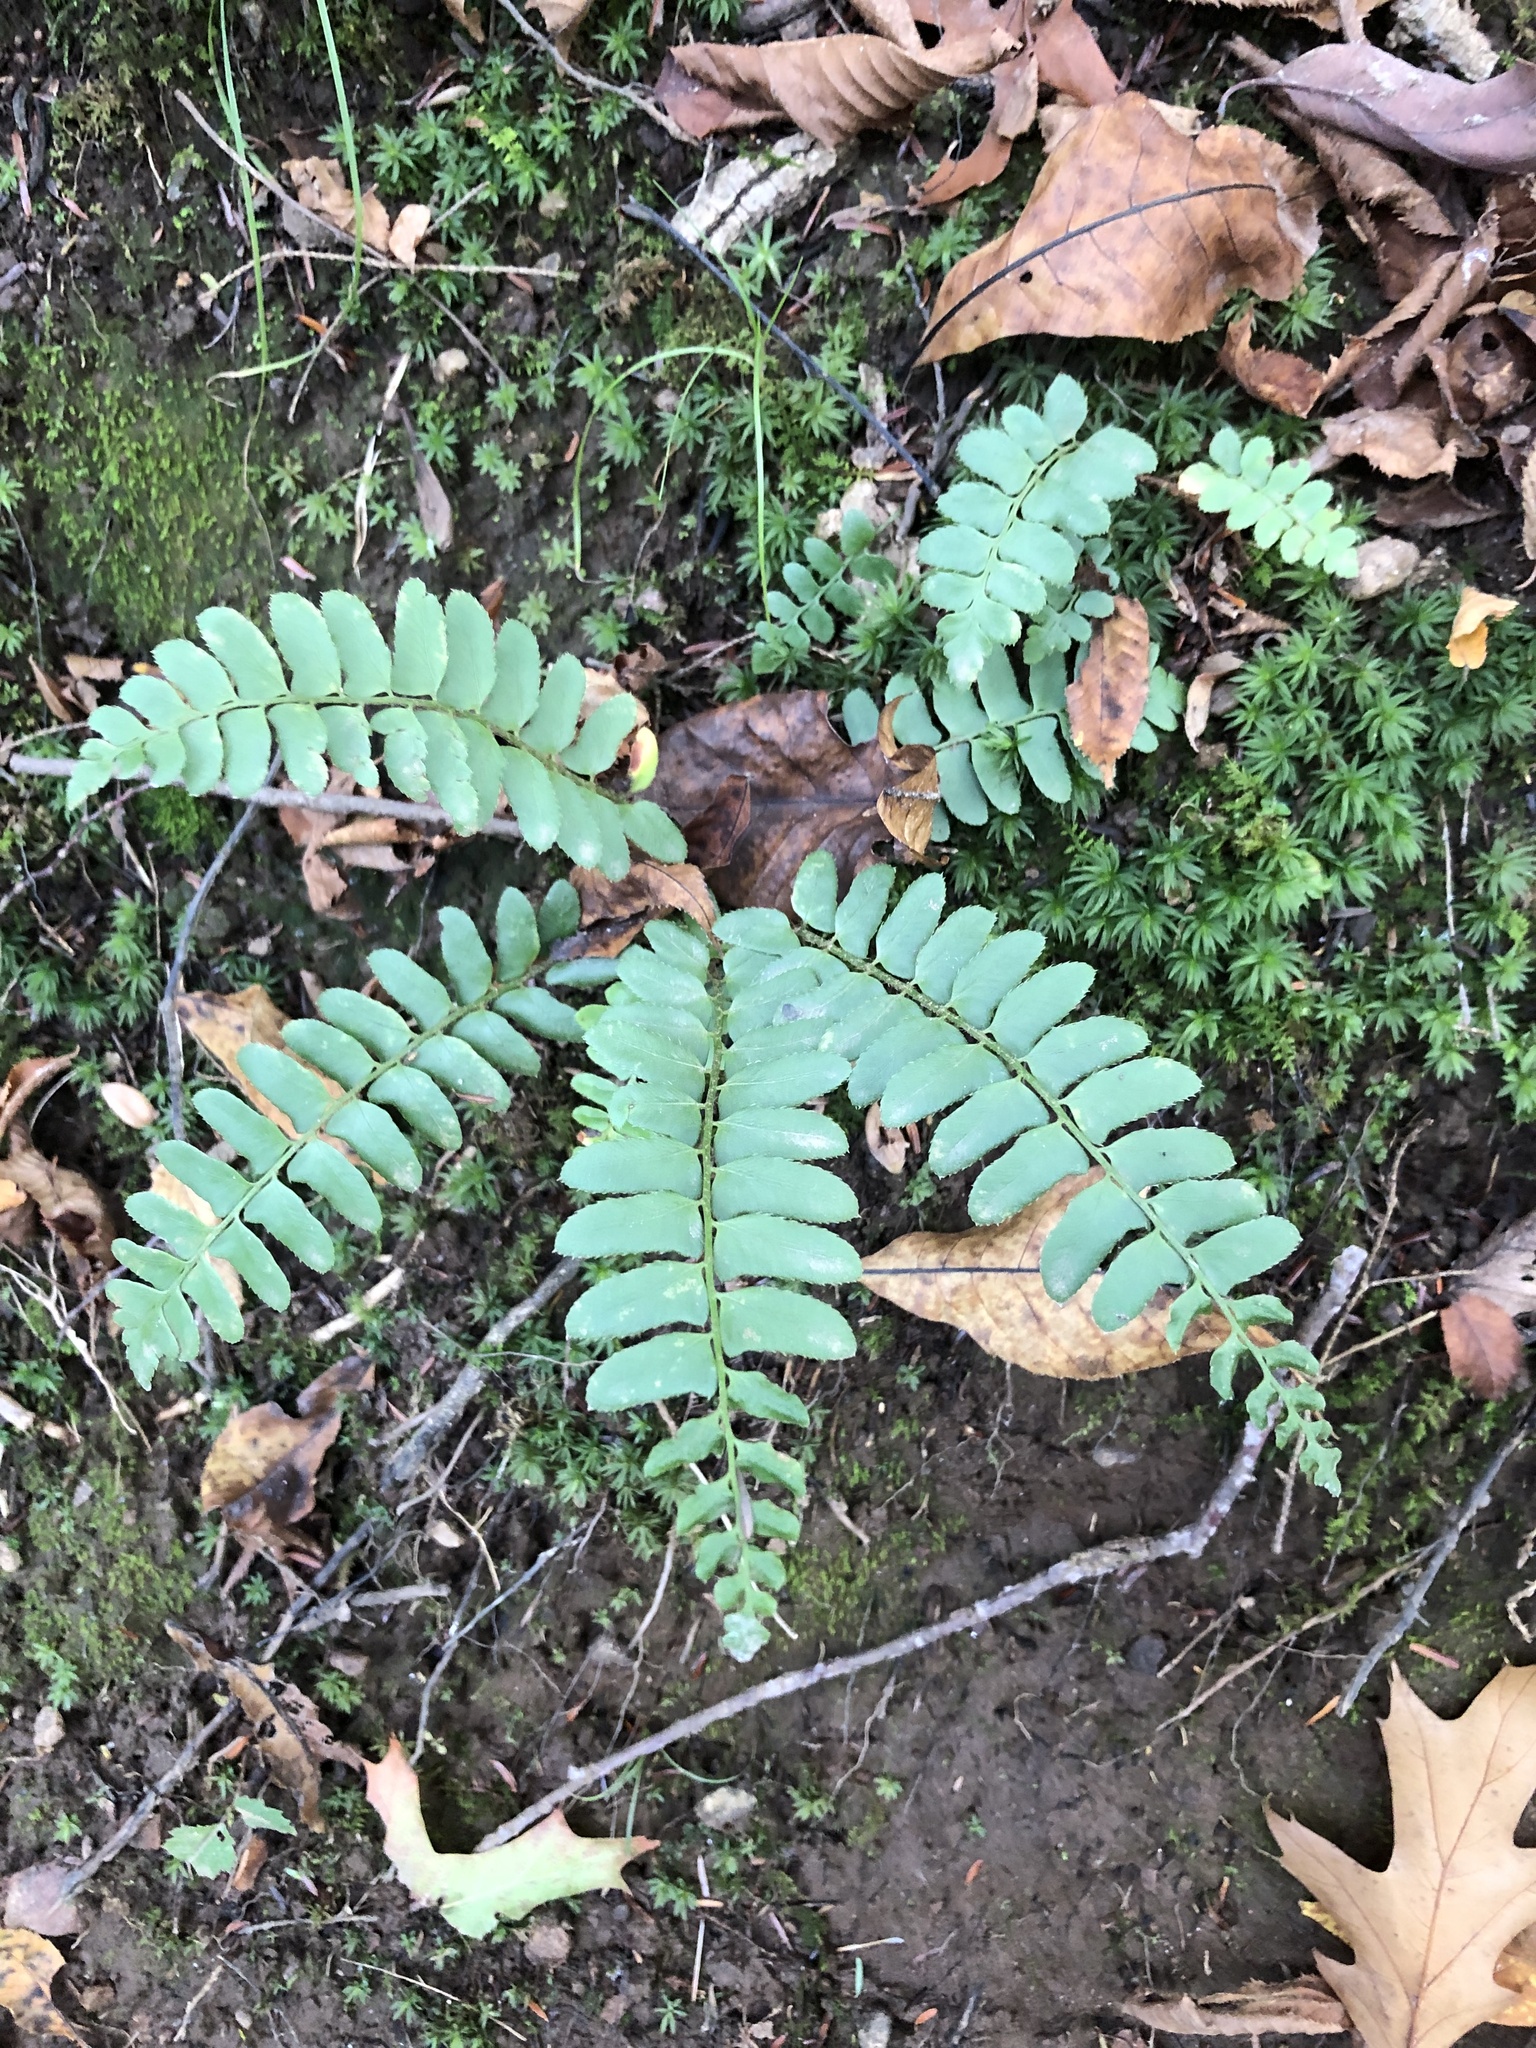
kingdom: Plantae
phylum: Tracheophyta
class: Polypodiopsida
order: Polypodiales
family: Dryopteridaceae
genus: Polystichum
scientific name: Polystichum acrostichoides
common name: Christmas fern
